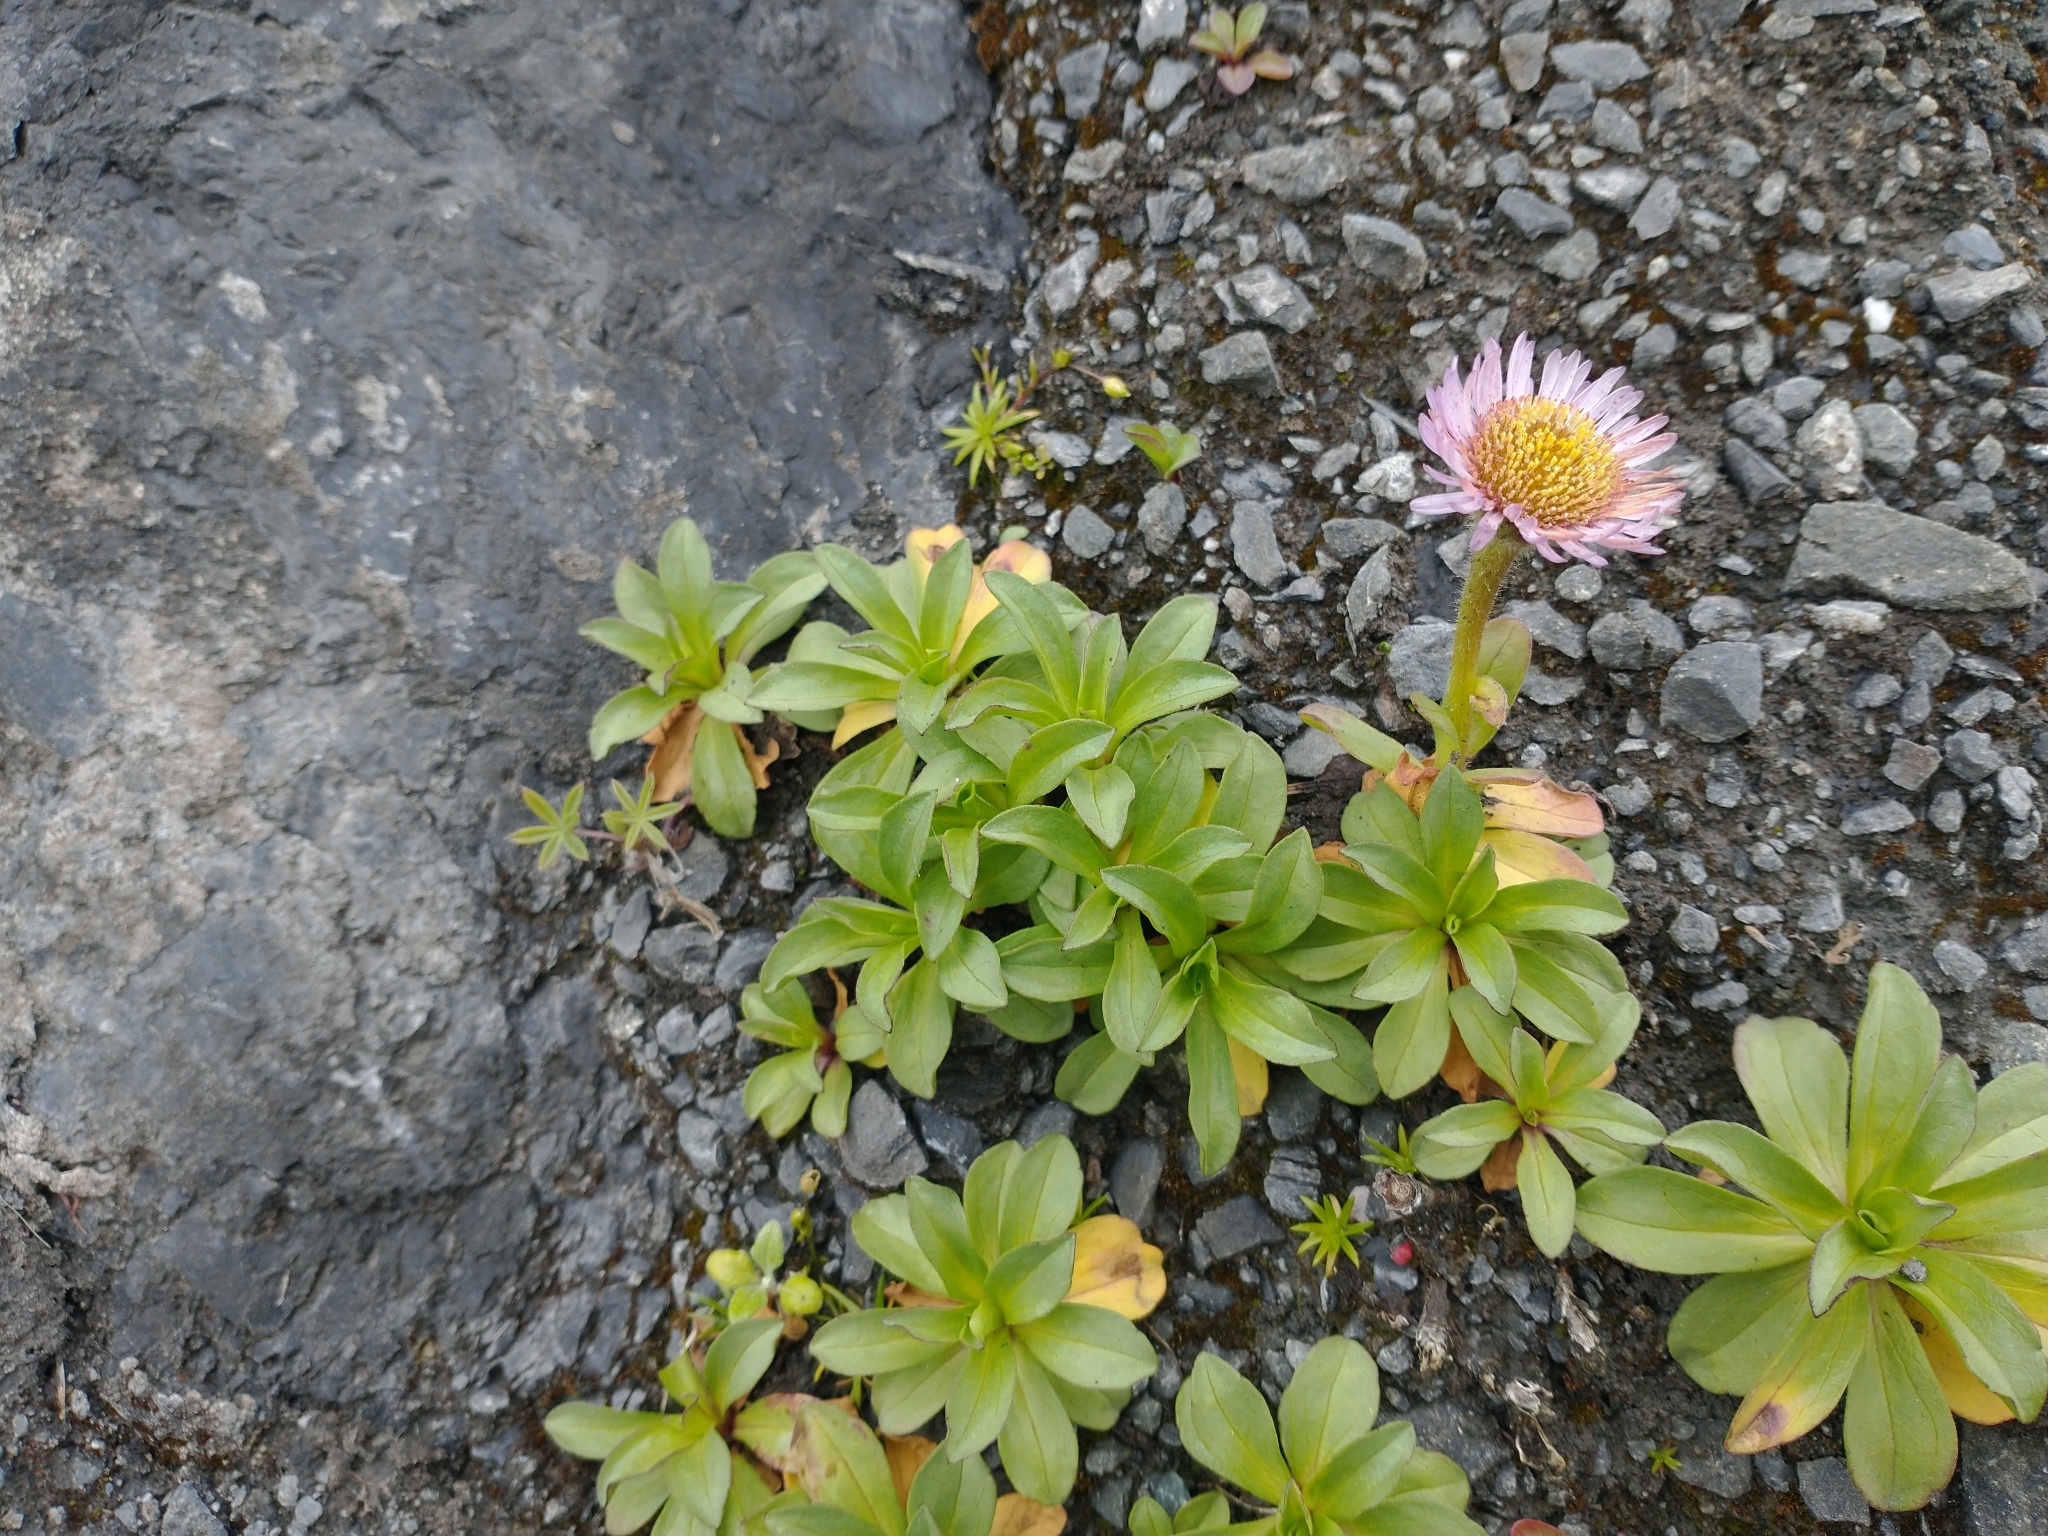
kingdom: Plantae
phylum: Tracheophyta
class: Magnoliopsida
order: Asterales
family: Asteraceae
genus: Erigeron
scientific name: Erigeron glaucus
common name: Seaside daisy
